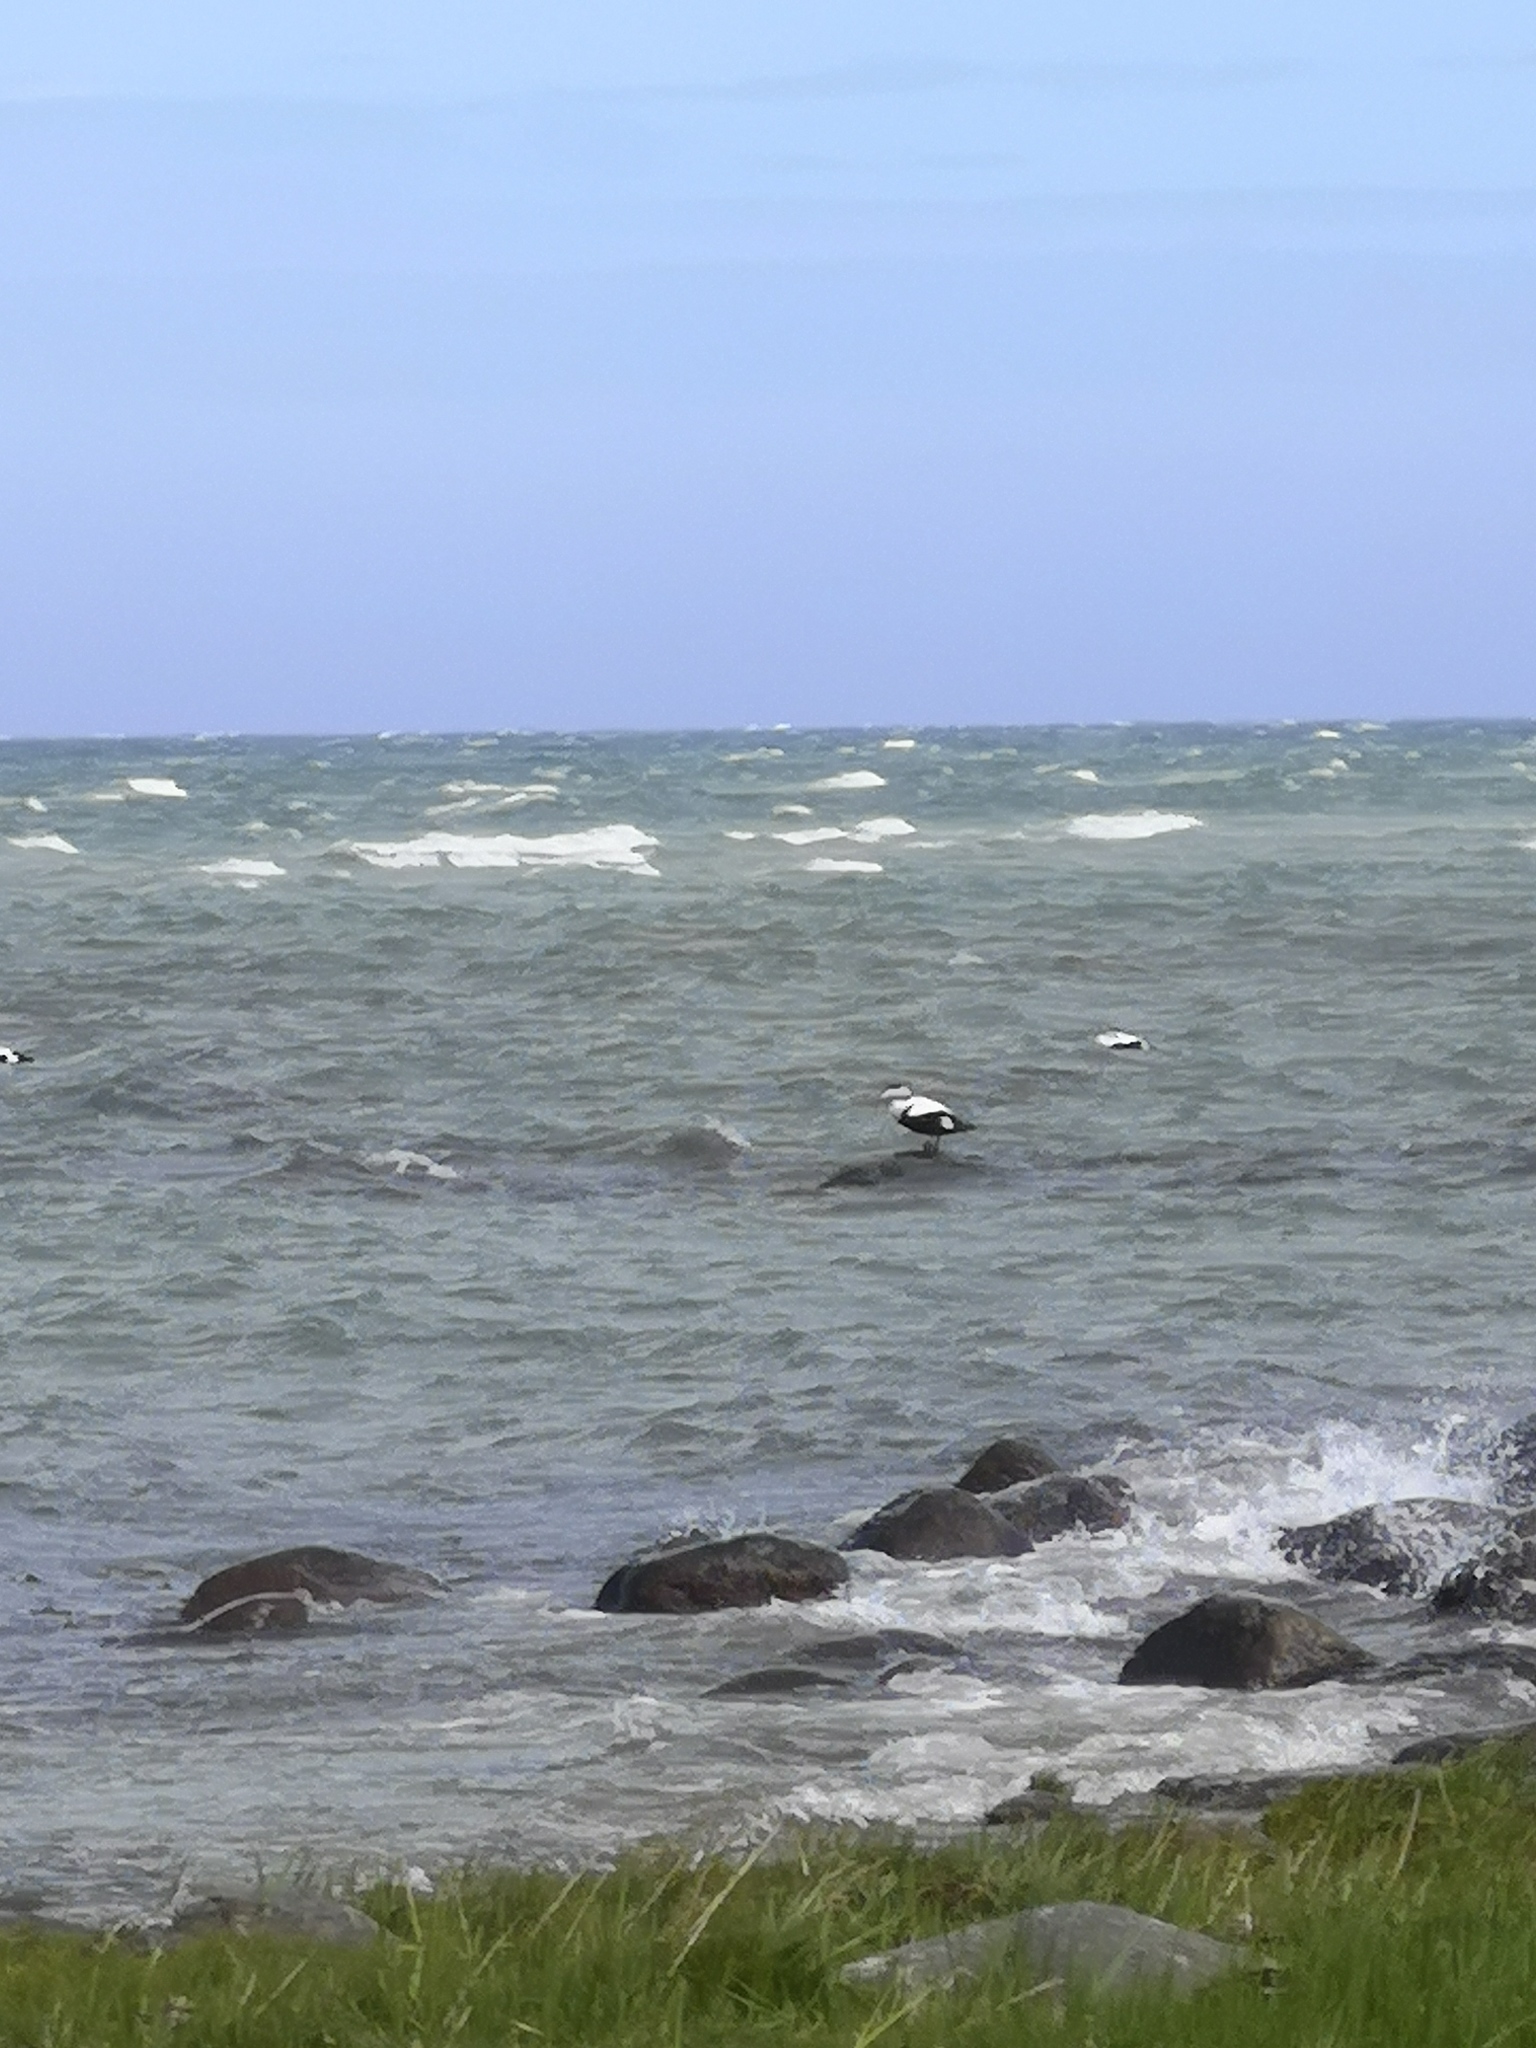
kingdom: Animalia
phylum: Chordata
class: Aves
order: Anseriformes
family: Anatidae
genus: Somateria
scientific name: Somateria mollissima
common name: Common eider
